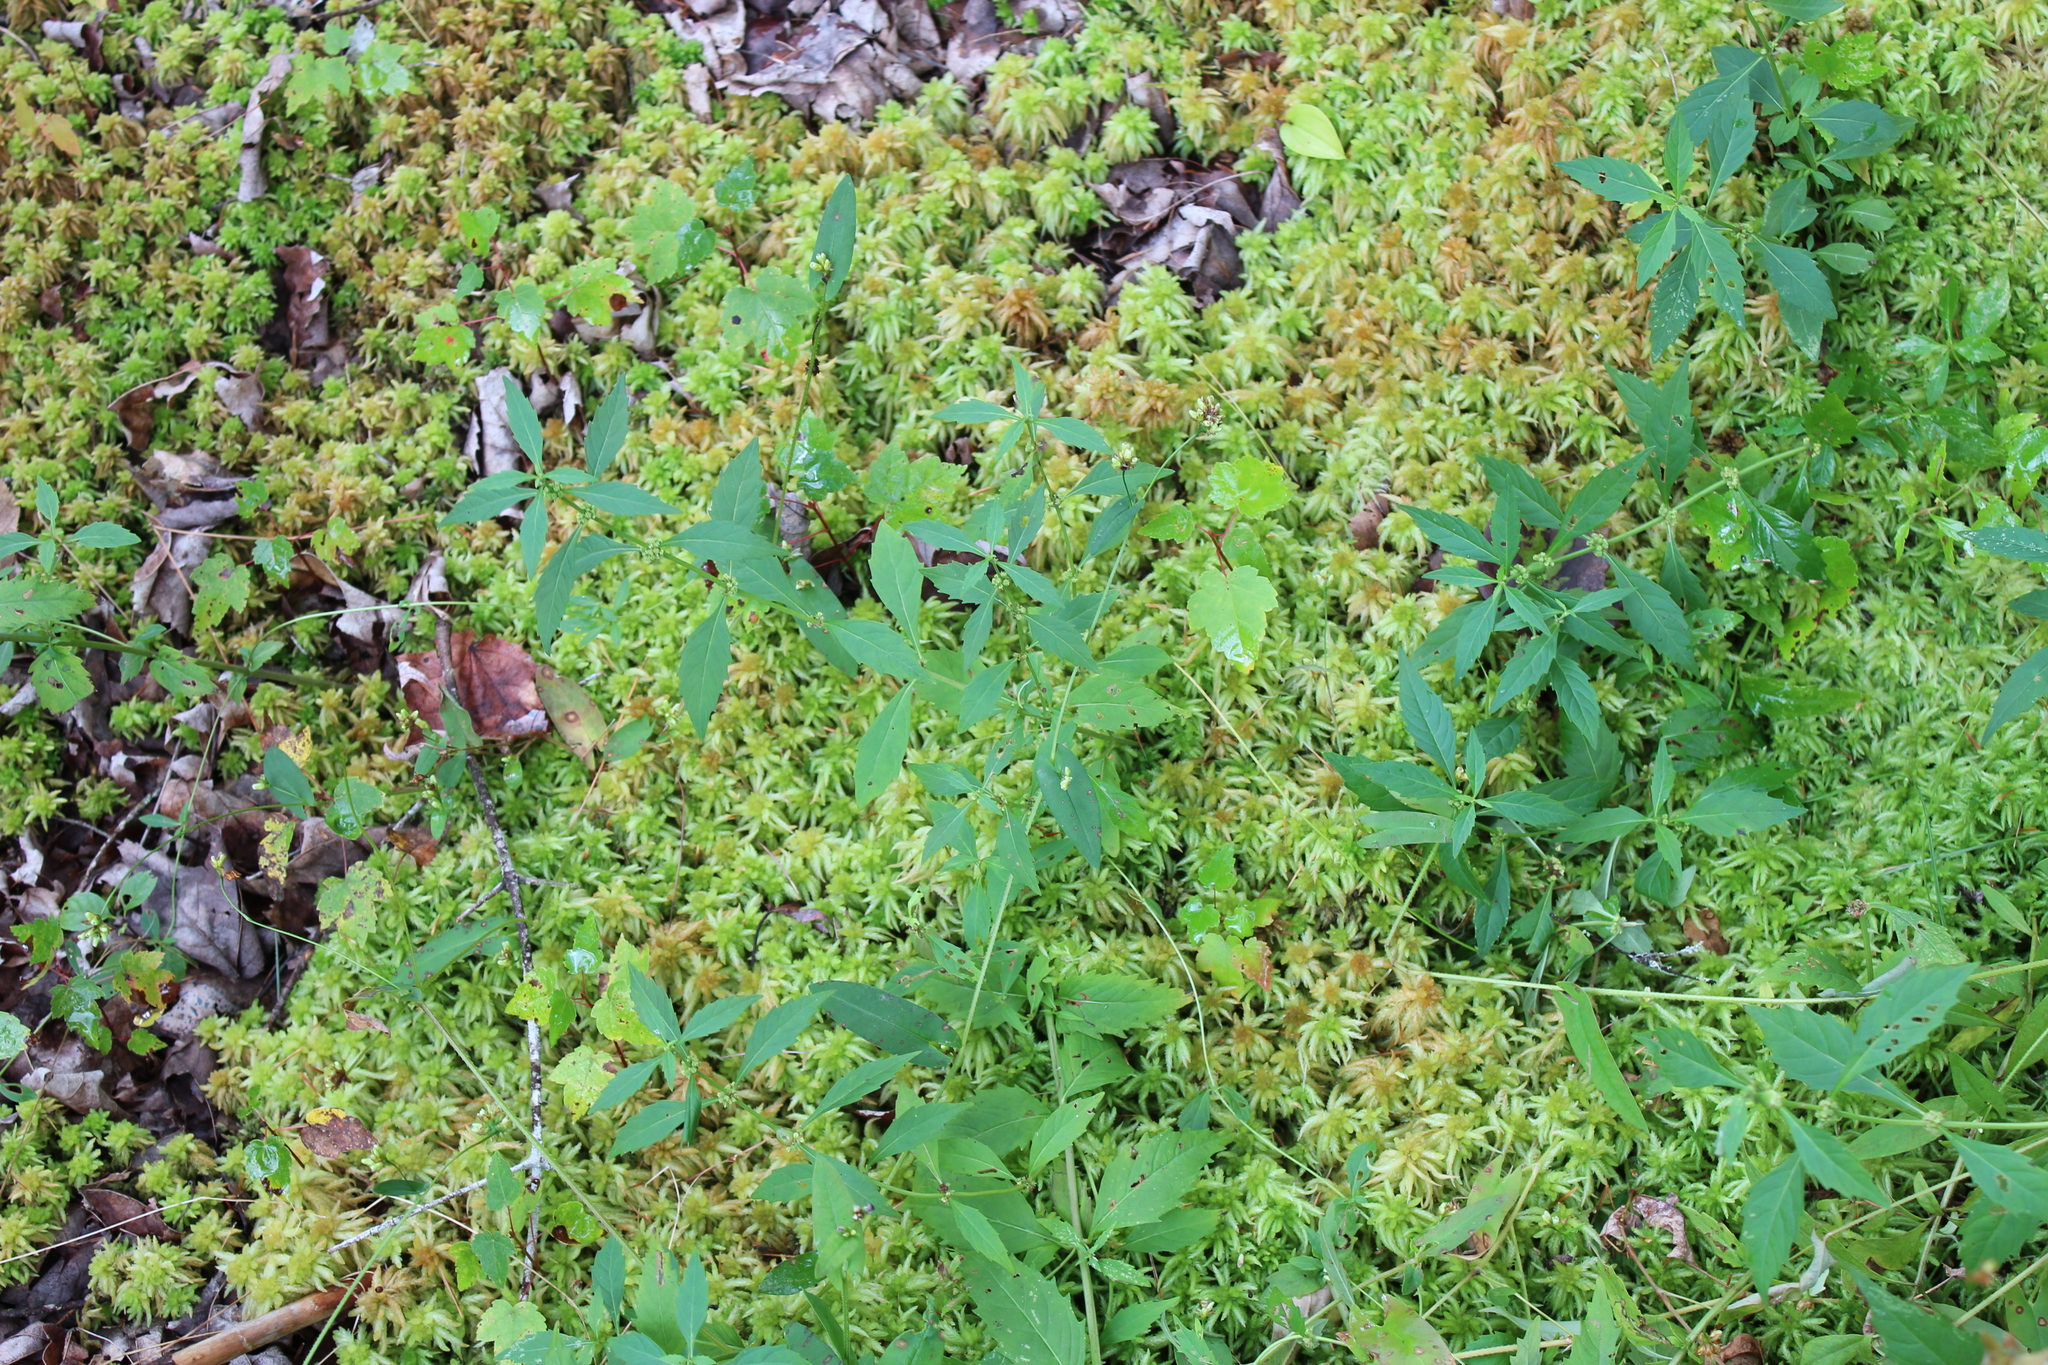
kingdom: Plantae
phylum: Tracheophyta
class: Magnoliopsida
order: Caryophyllales
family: Polygonaceae
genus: Persicaria
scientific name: Persicaria sagittata
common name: American tearthumb
